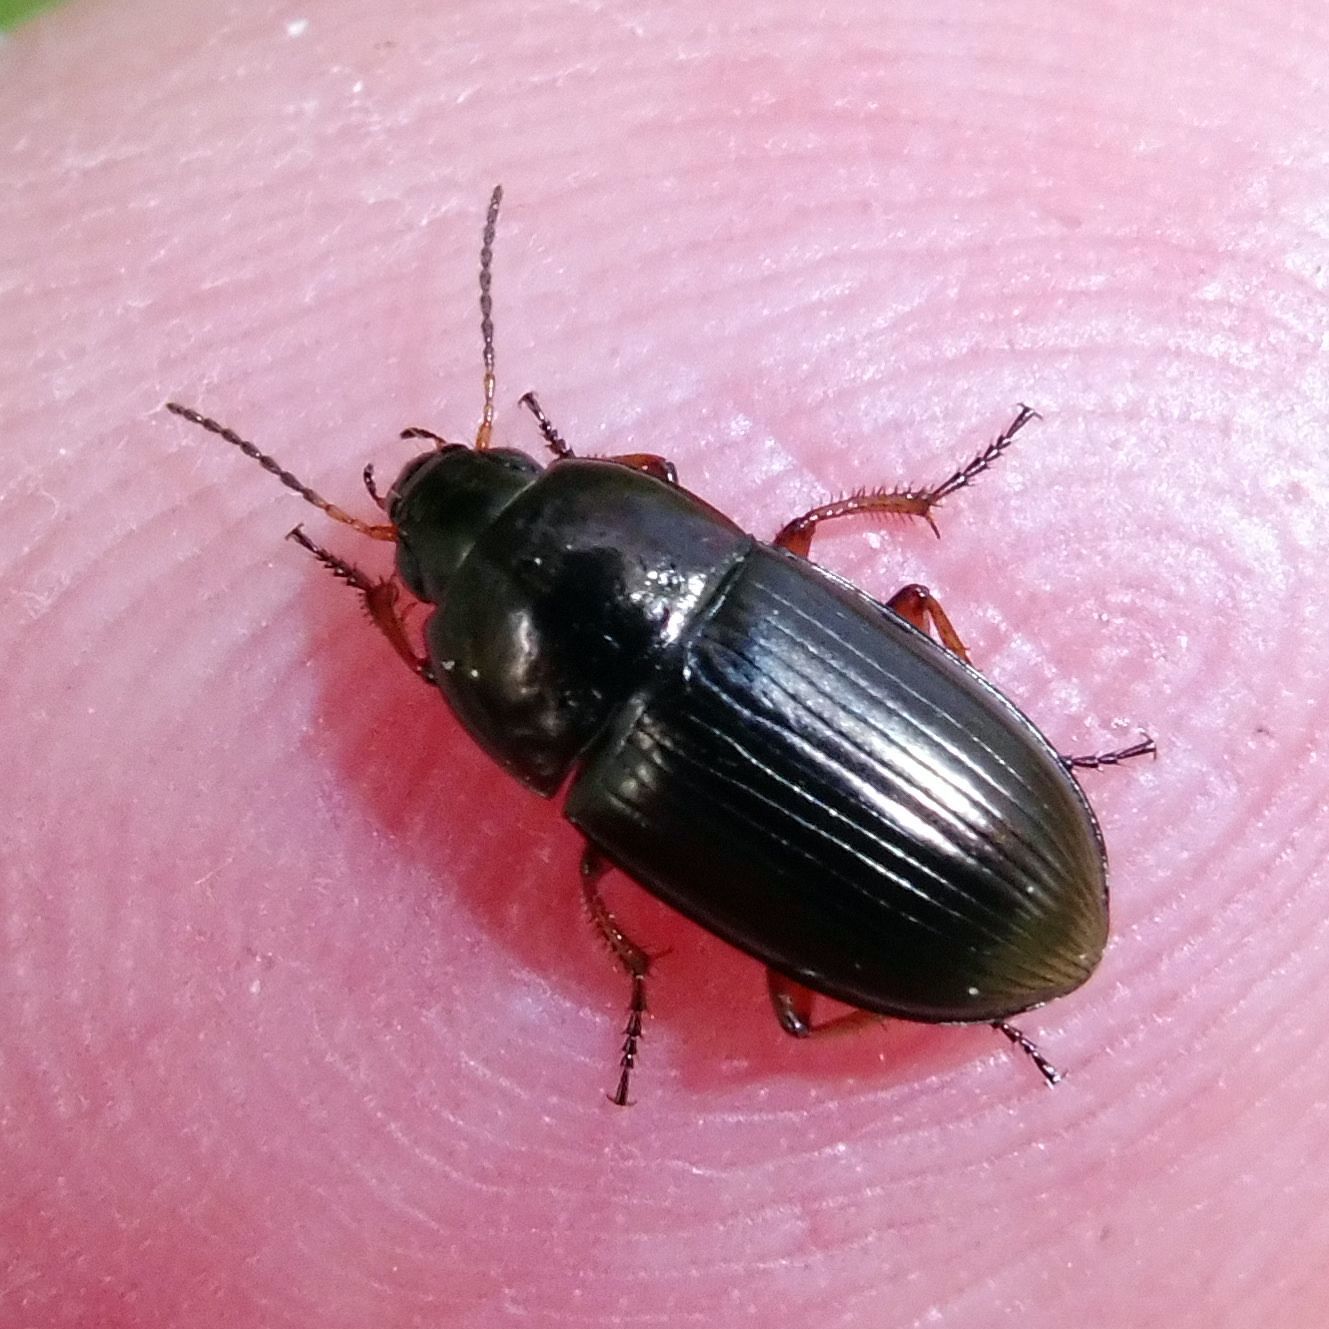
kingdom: Animalia
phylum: Arthropoda
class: Insecta
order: Coleoptera
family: Carabidae
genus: Amara
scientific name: Amara familiaris
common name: Familiar harp round beetle
